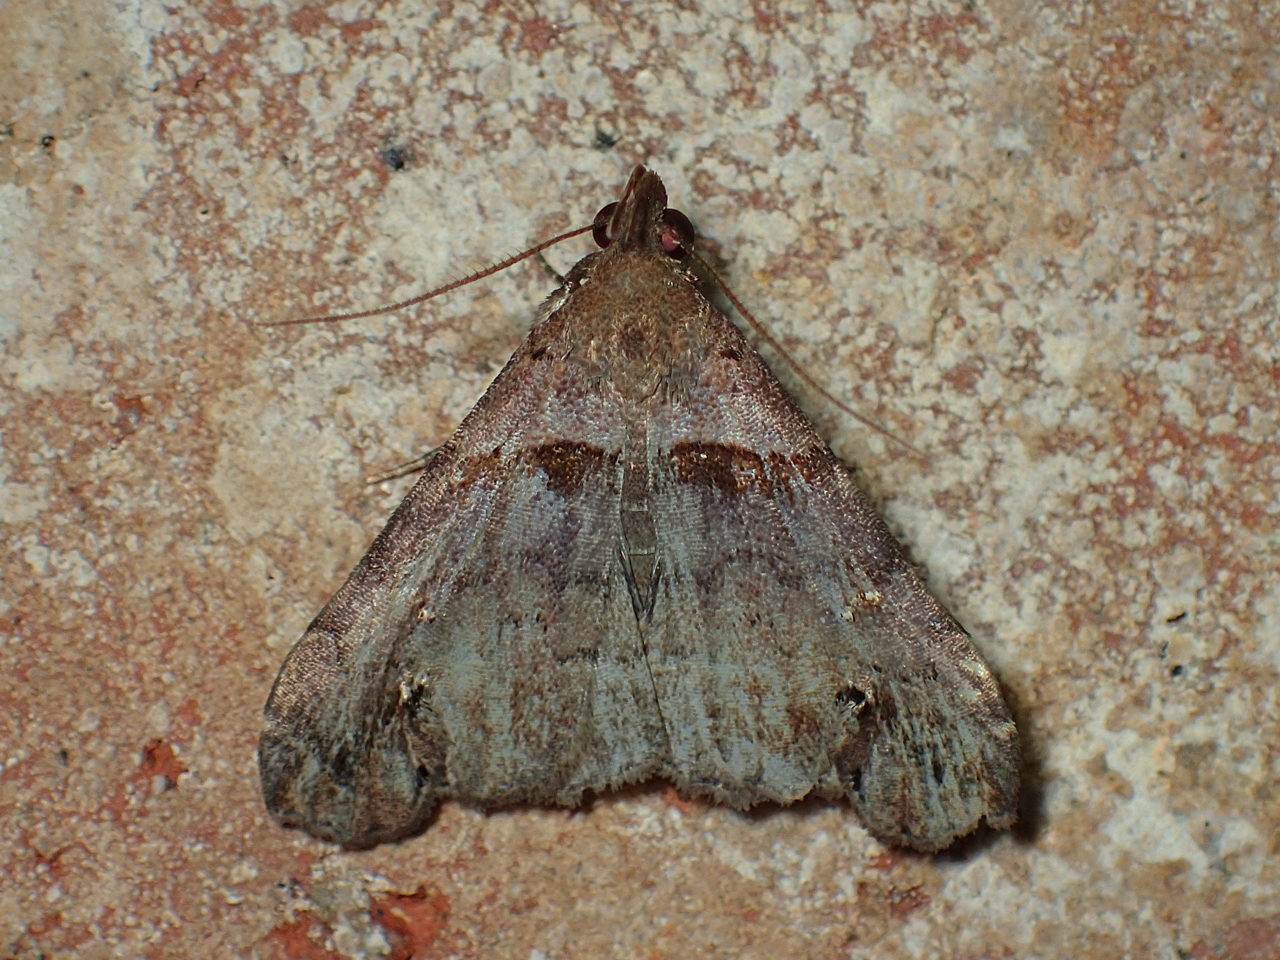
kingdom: Animalia
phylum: Arthropoda
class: Insecta
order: Lepidoptera
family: Erebidae
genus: Lascoria
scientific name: Lascoria ambigualis
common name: Ambiguous moth
